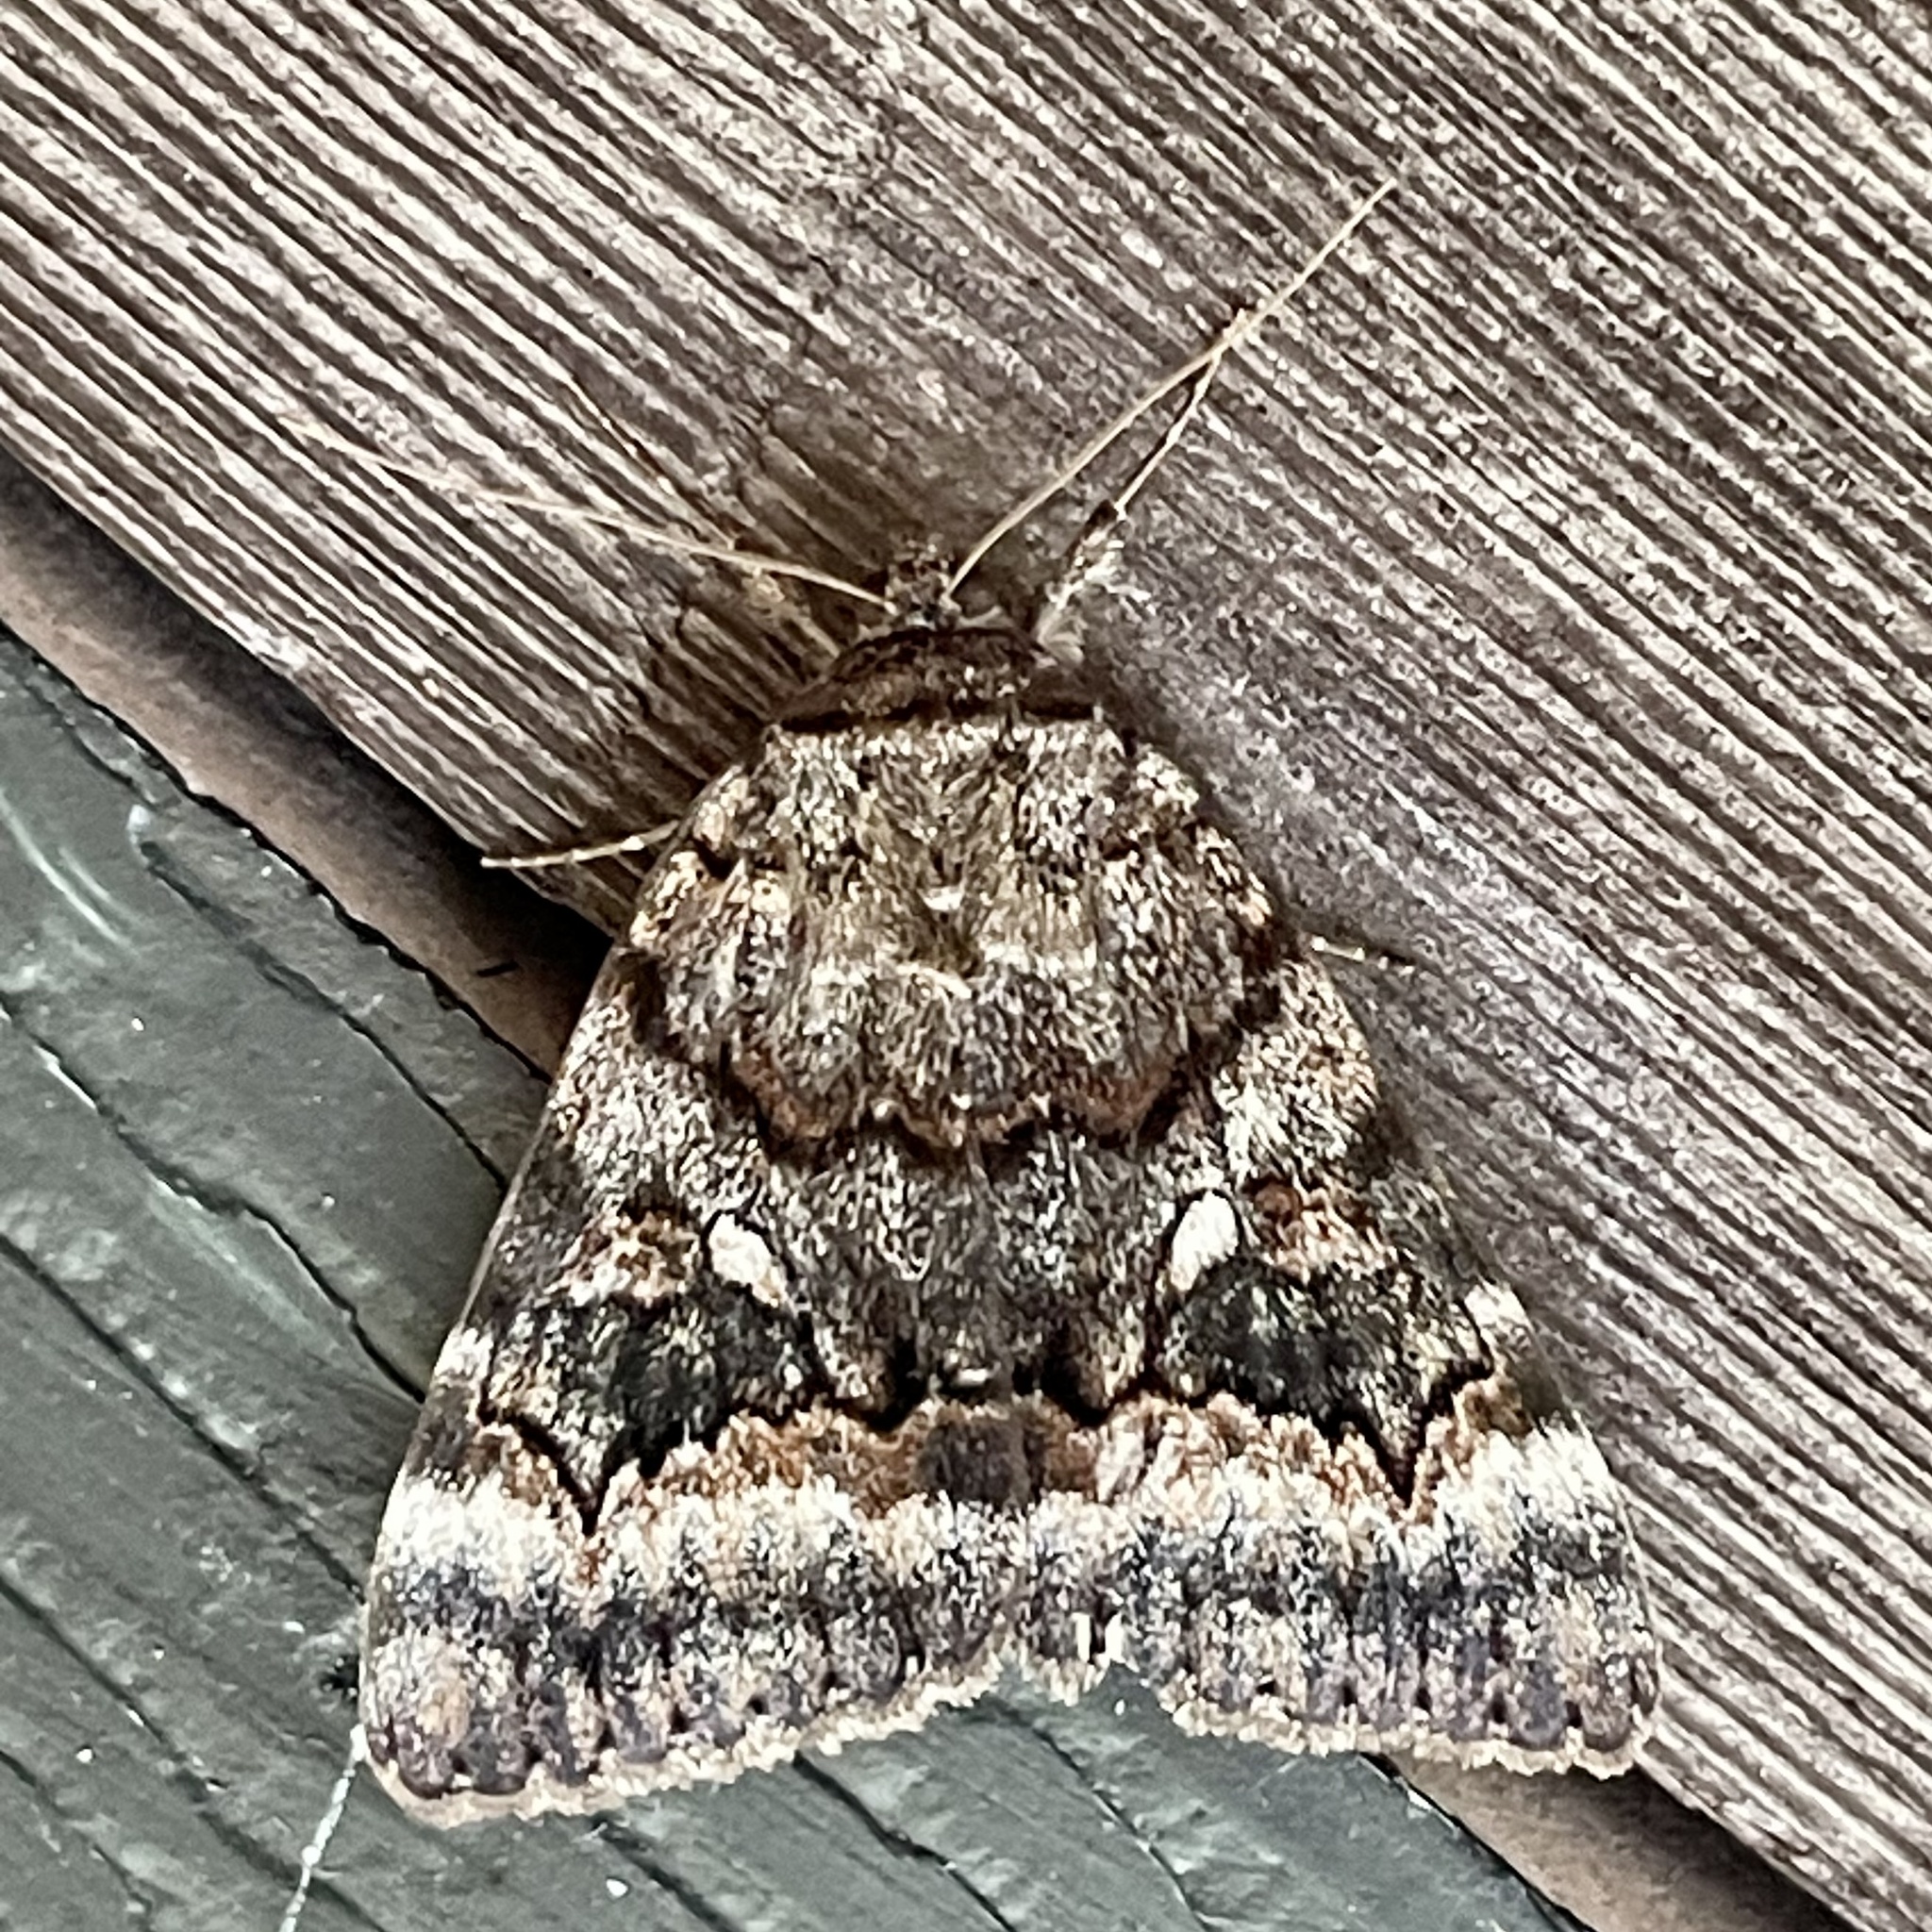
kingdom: Animalia
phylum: Arthropoda
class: Insecta
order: Lepidoptera
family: Erebidae
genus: Catocala
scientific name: Catocala epione
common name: Epione underwing
